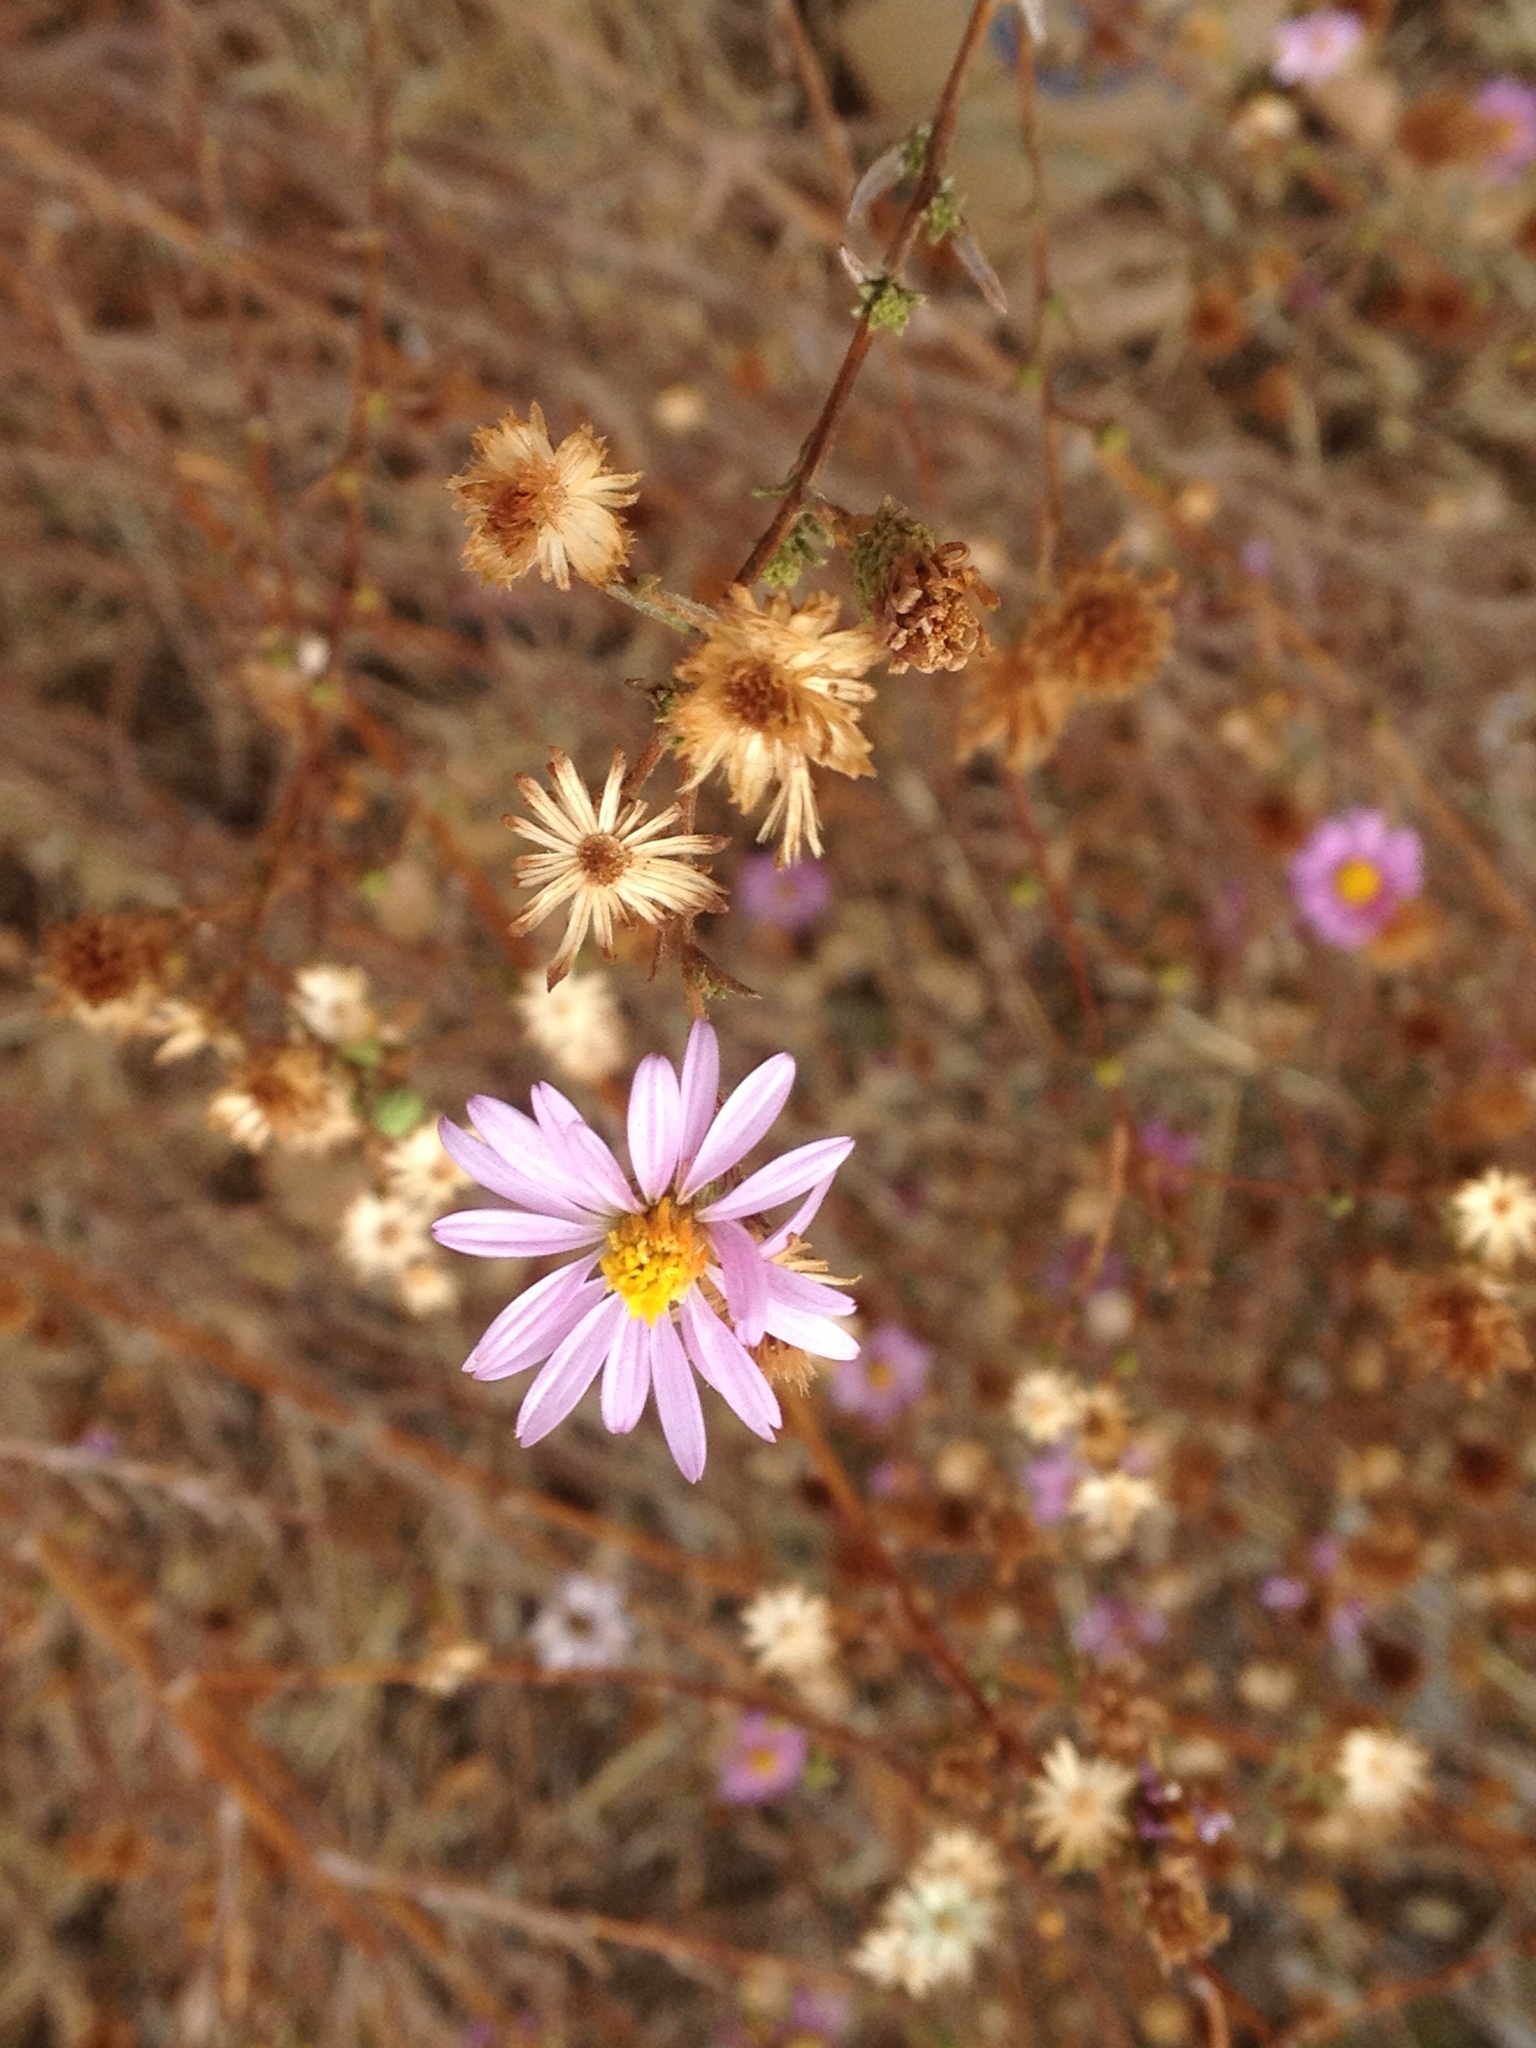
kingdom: Plantae
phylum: Tracheophyta
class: Magnoliopsida
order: Asterales
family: Asteraceae
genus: Corethrogyne
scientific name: Corethrogyne filaginifolia
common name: Sand-aster
